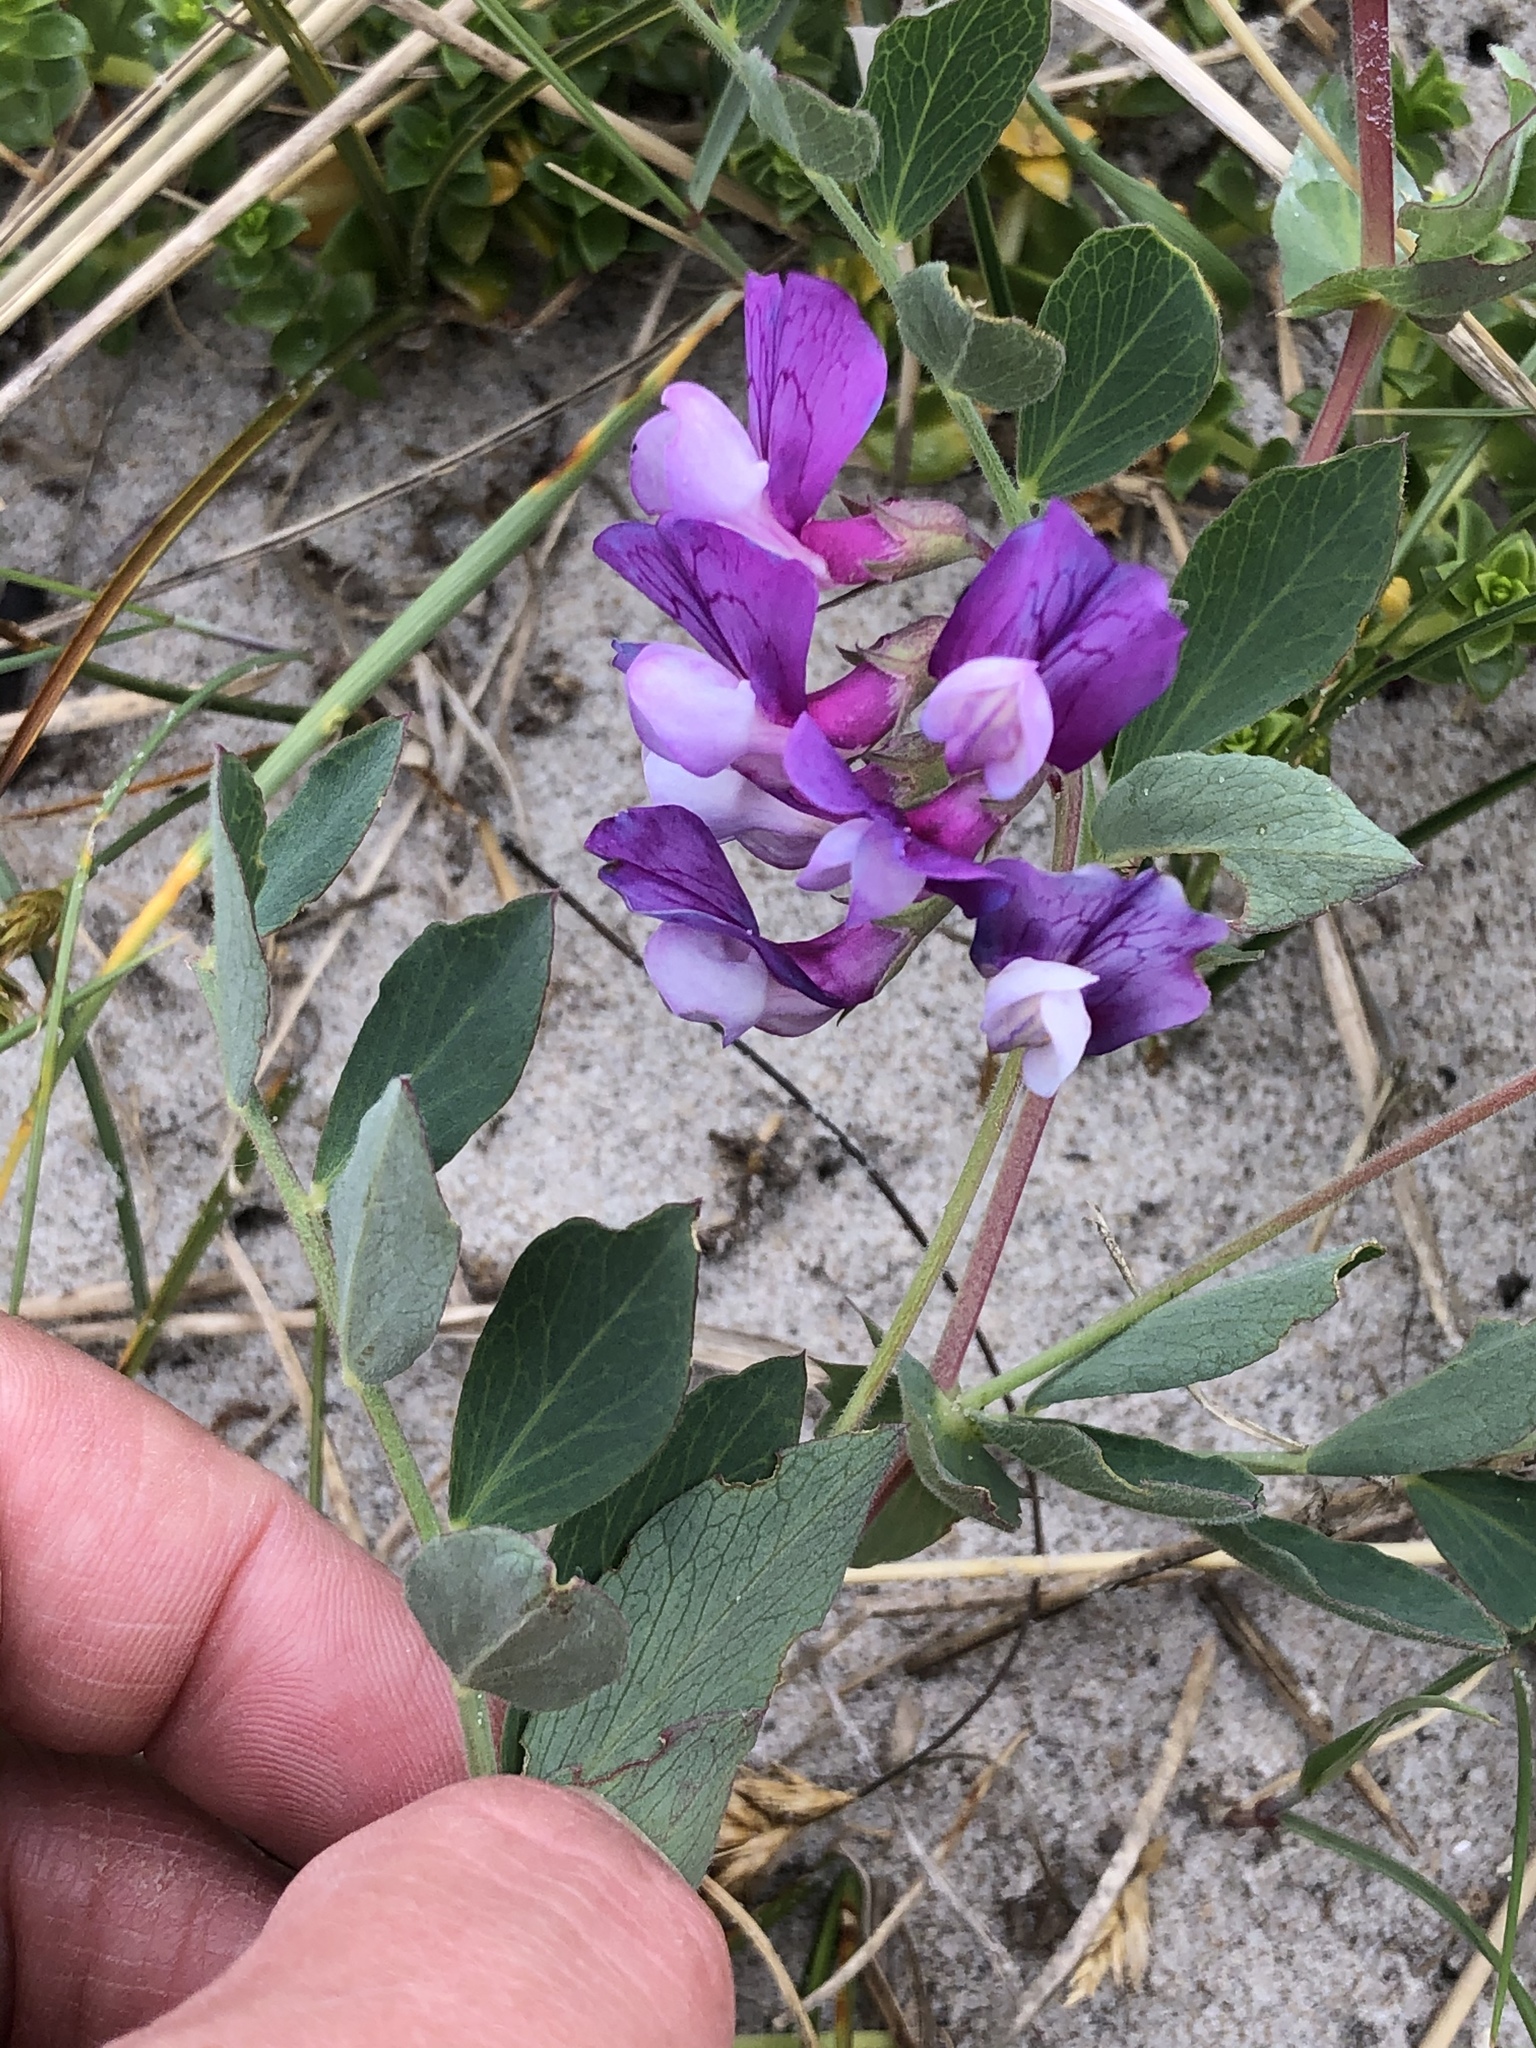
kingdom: Plantae
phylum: Tracheophyta
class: Magnoliopsida
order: Fabales
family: Fabaceae
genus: Lathyrus
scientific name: Lathyrus japonicus
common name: Sea pea
